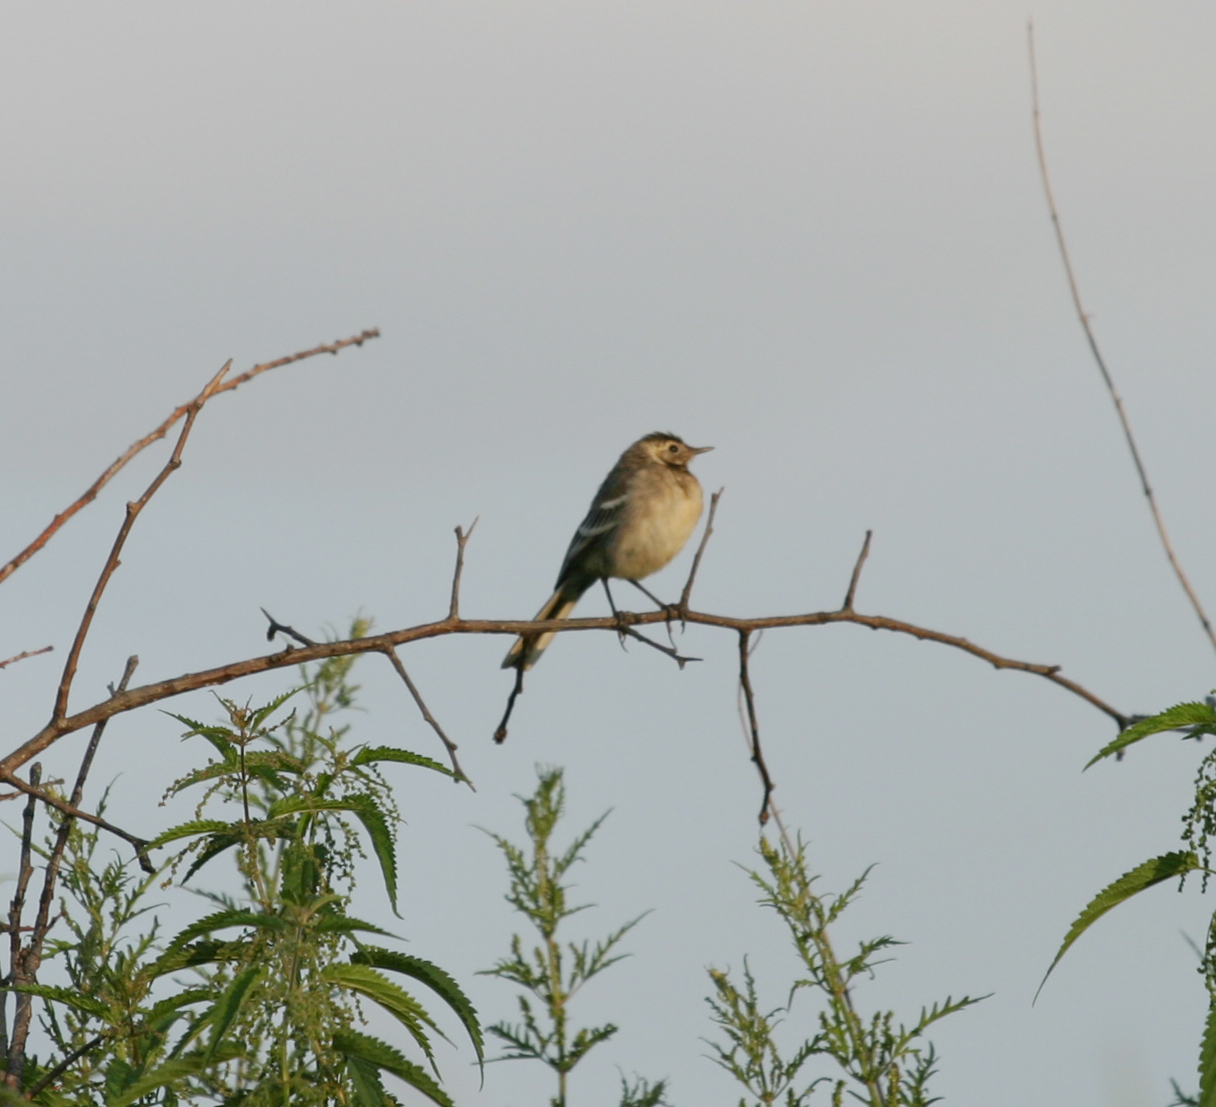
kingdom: Animalia
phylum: Chordata
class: Aves
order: Passeriformes
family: Motacillidae
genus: Motacilla
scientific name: Motacilla alba
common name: White wagtail
